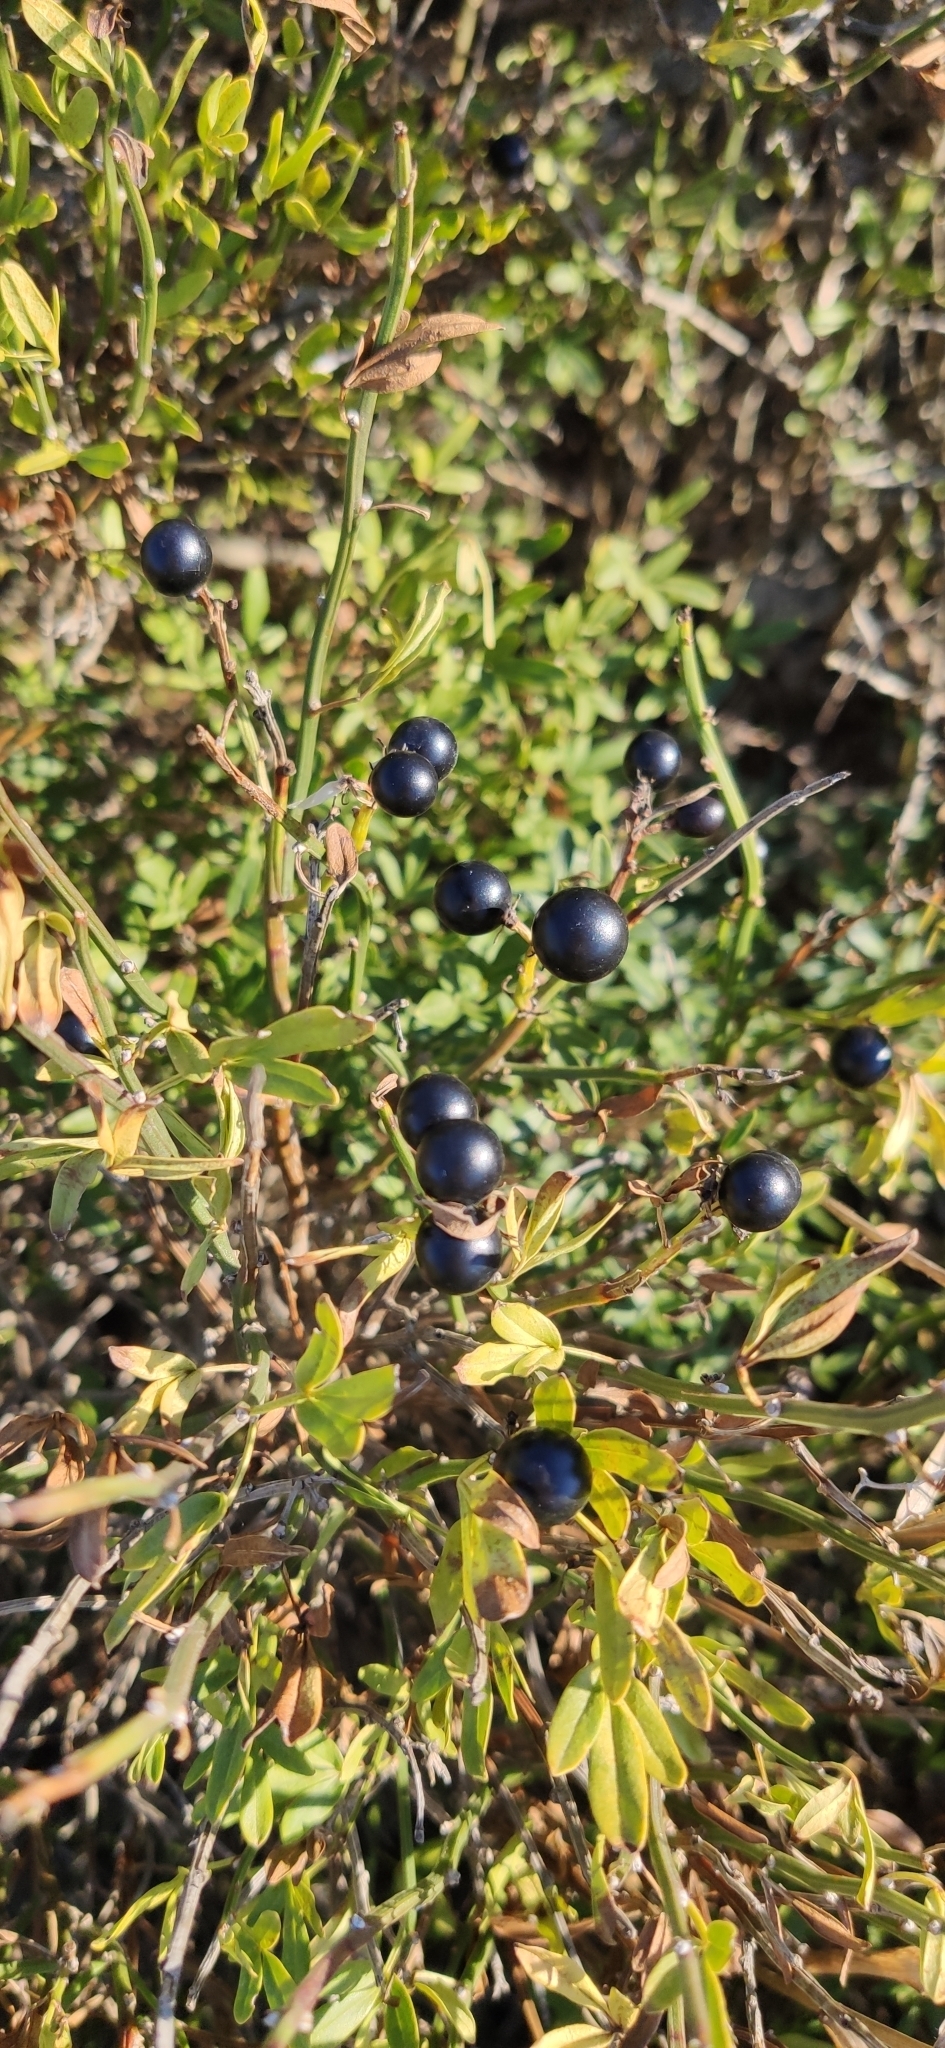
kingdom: Plantae
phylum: Tracheophyta
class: Magnoliopsida
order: Lamiales
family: Oleaceae
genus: Chrysojasminum
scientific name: Chrysojasminum fruticans
